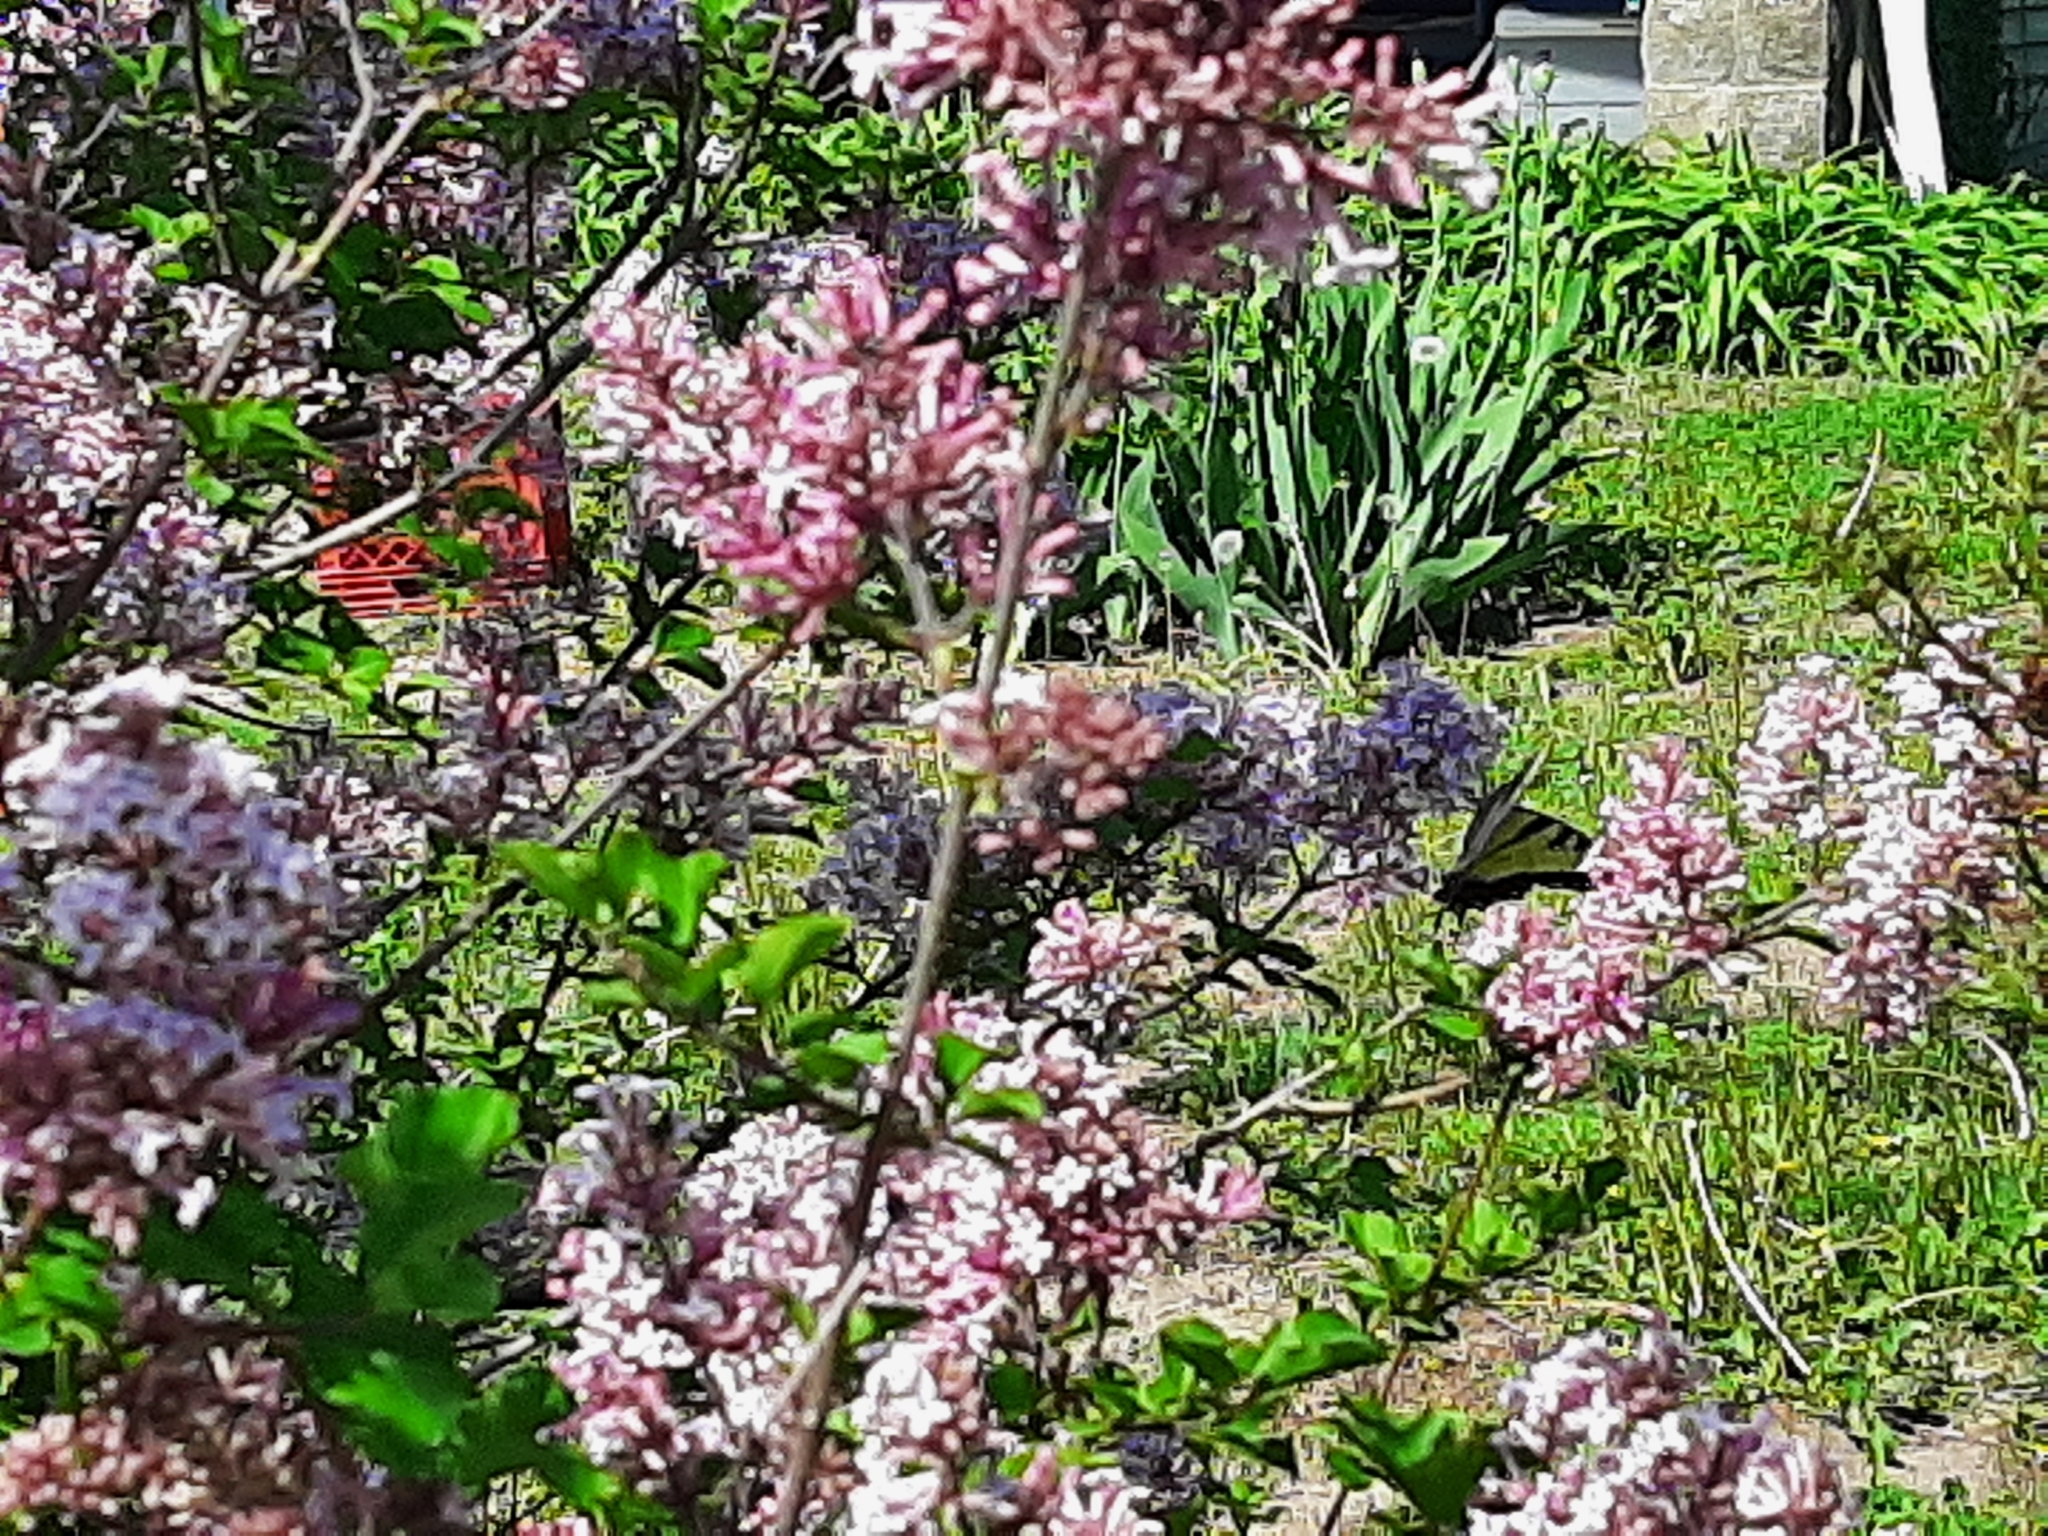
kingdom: Animalia
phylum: Arthropoda
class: Insecta
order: Lepidoptera
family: Papilionidae
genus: Papilio
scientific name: Papilio glaucus
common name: Tiger swallowtail
